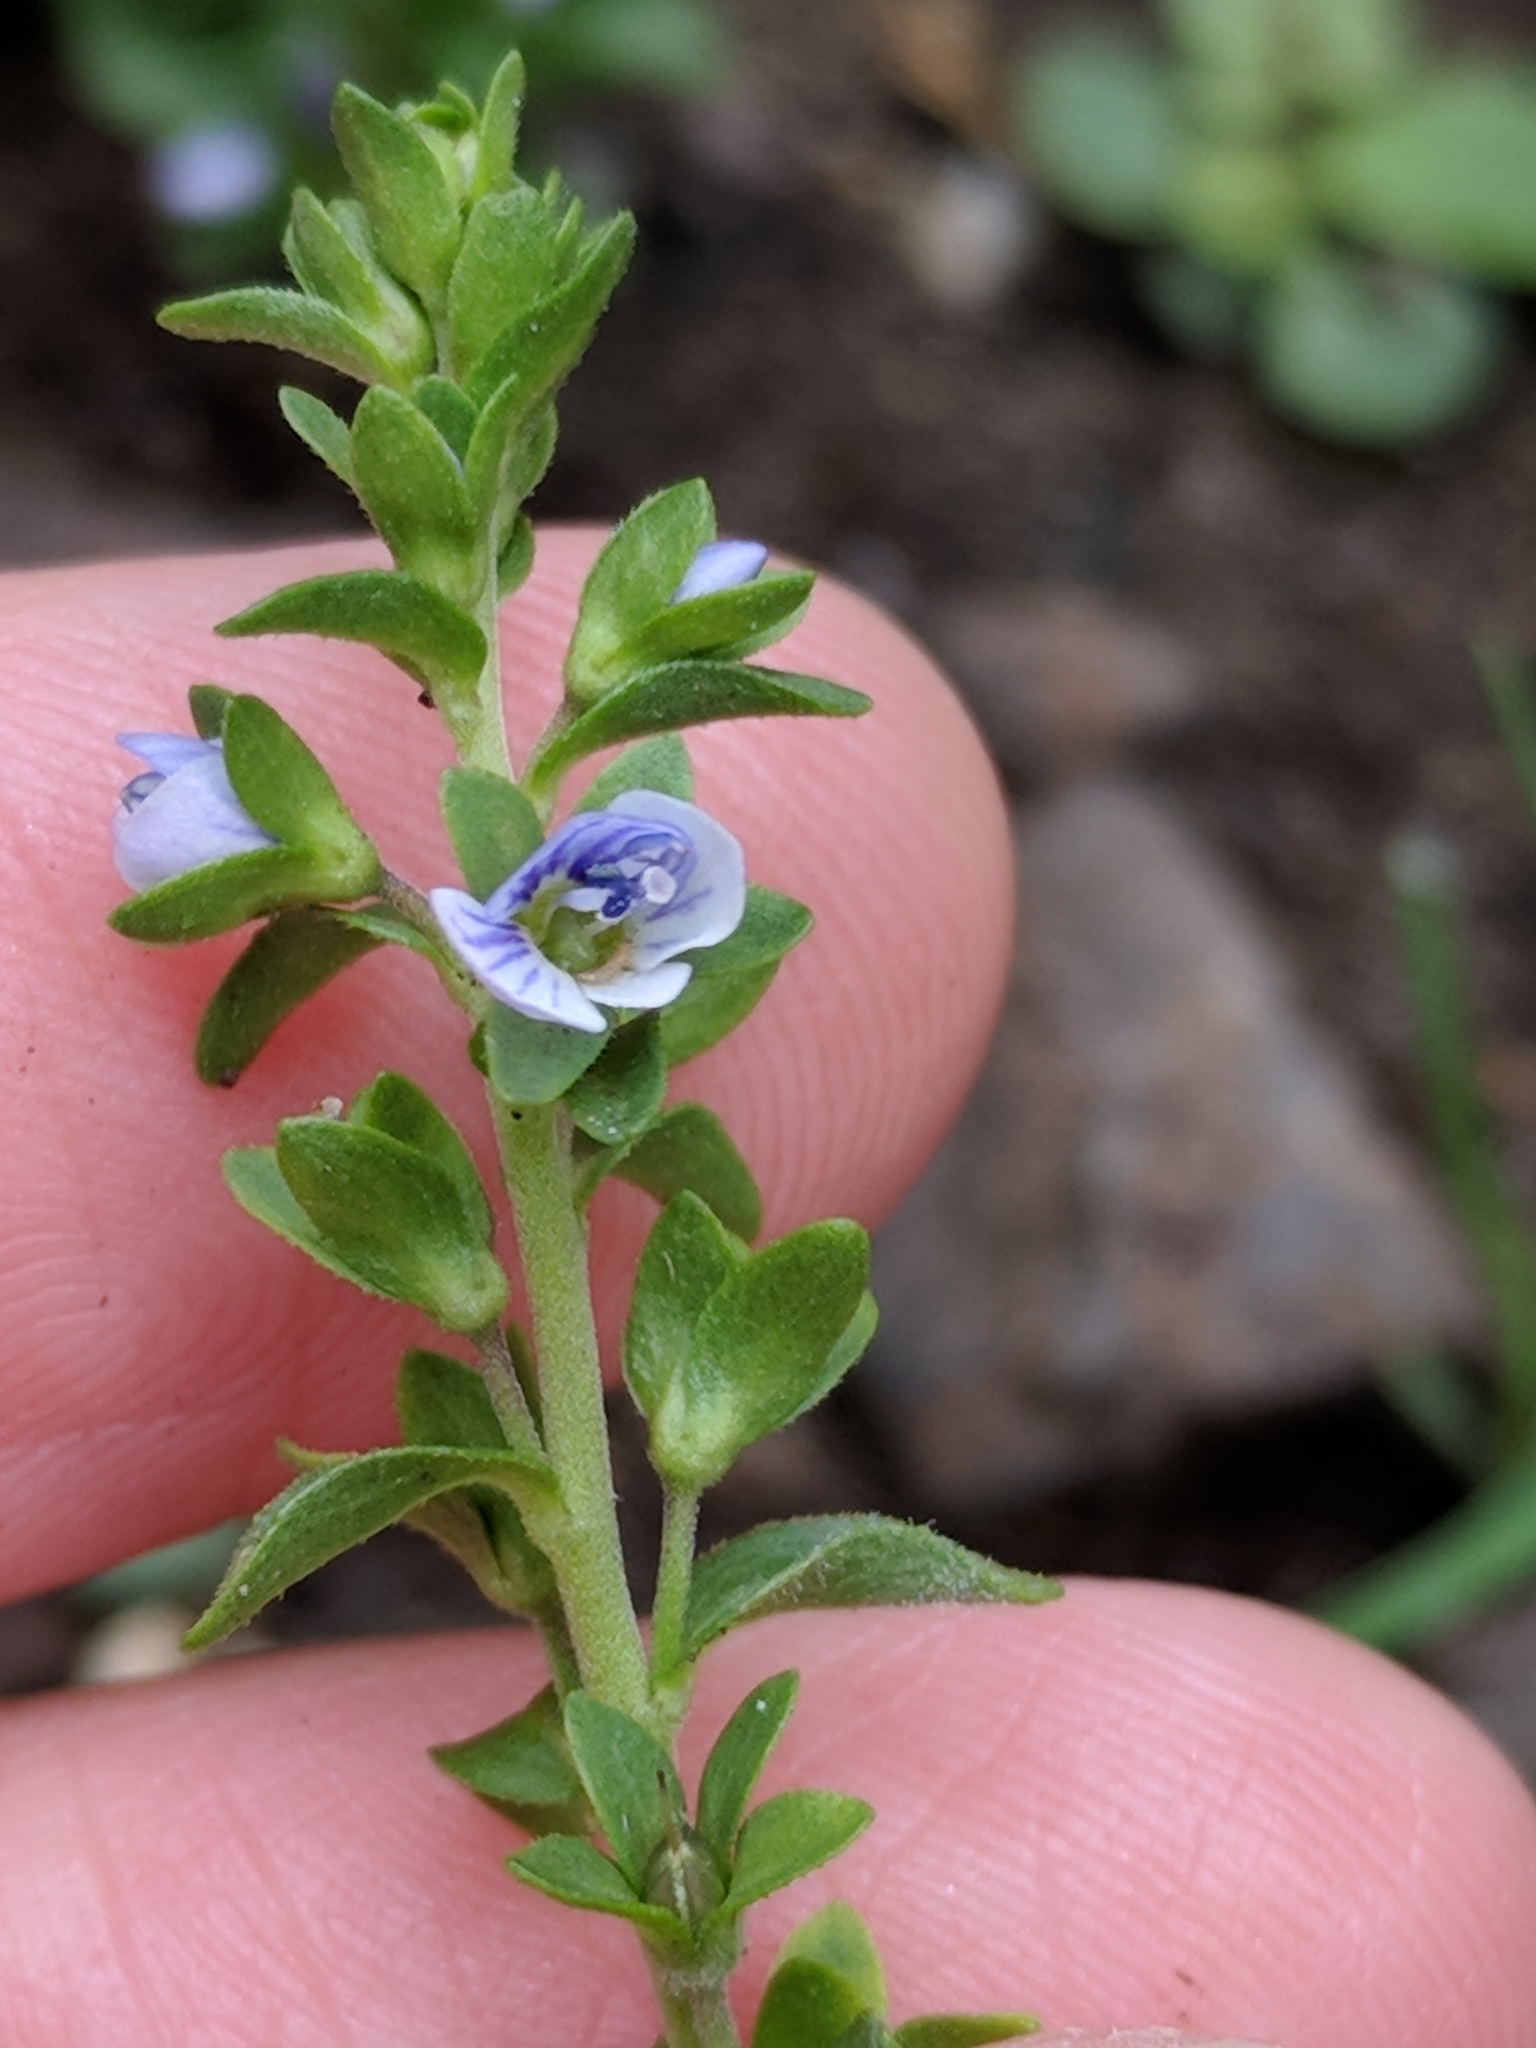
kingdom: Plantae
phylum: Tracheophyta
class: Magnoliopsida
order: Lamiales
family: Plantaginaceae
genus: Veronica
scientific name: Veronica serpyllifolia
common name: Thyme-leaved speedwell
